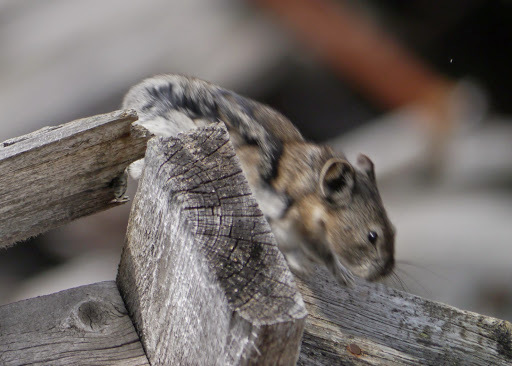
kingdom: Animalia
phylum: Chordata
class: Mammalia
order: Lagomorpha
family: Ochotonidae
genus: Ochotona
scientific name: Ochotona collaris
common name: Collared pika
